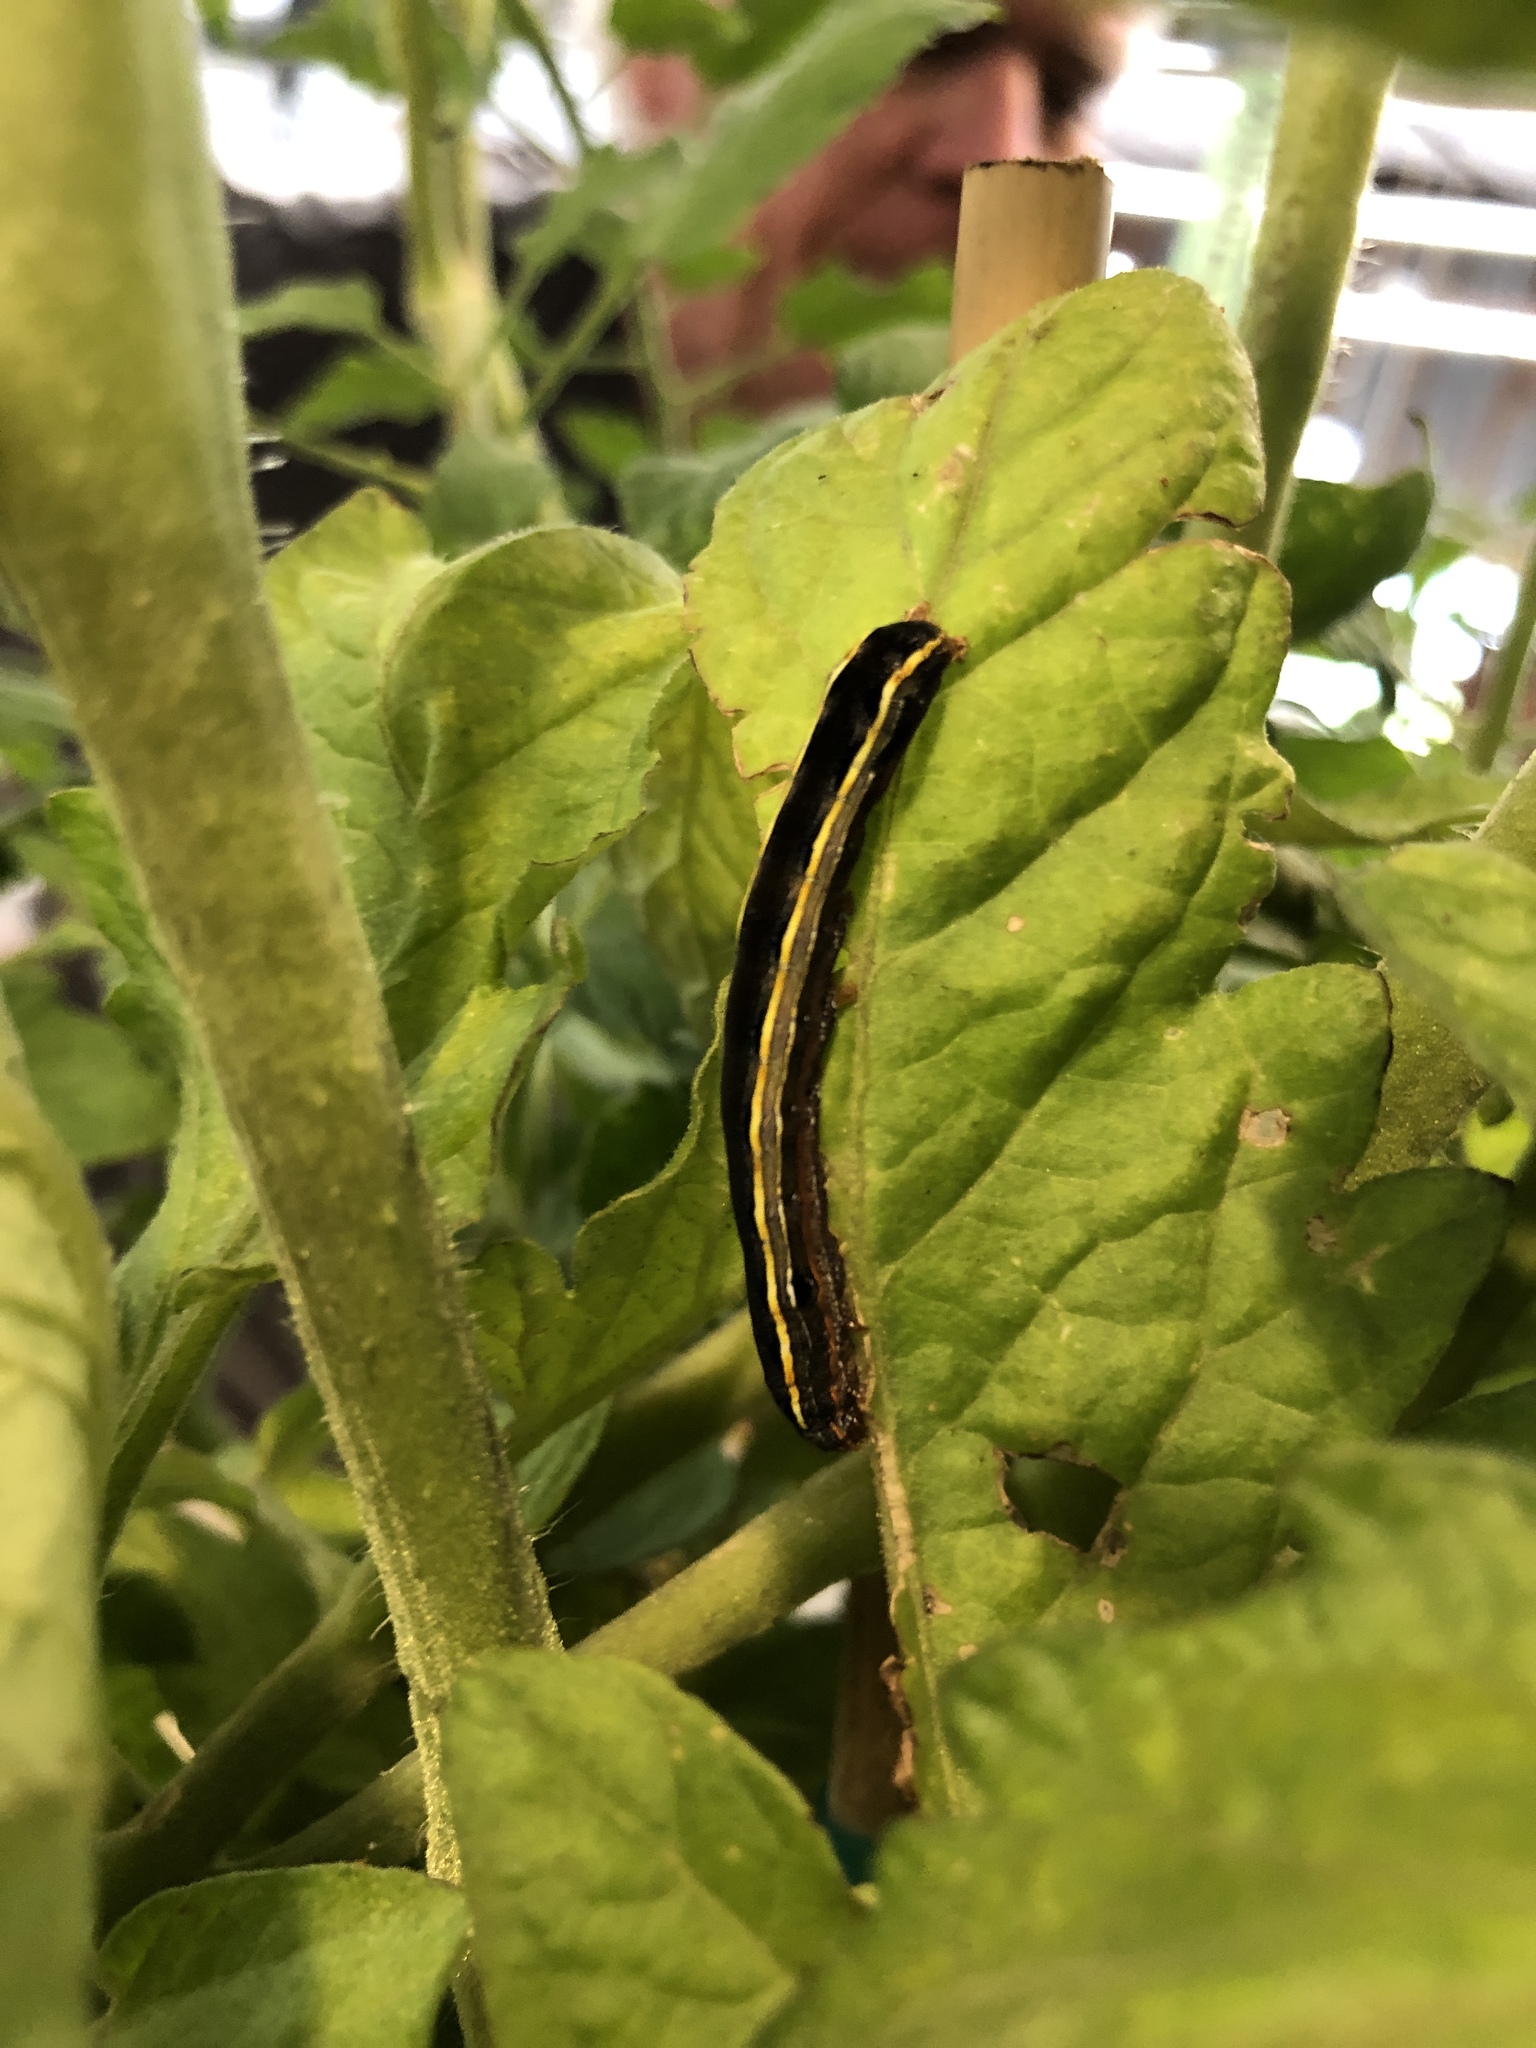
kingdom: Animalia
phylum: Arthropoda
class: Insecta
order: Lepidoptera
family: Noctuidae
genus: Spodoptera
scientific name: Spodoptera ornithogalli
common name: Yellow-striped armyworm
